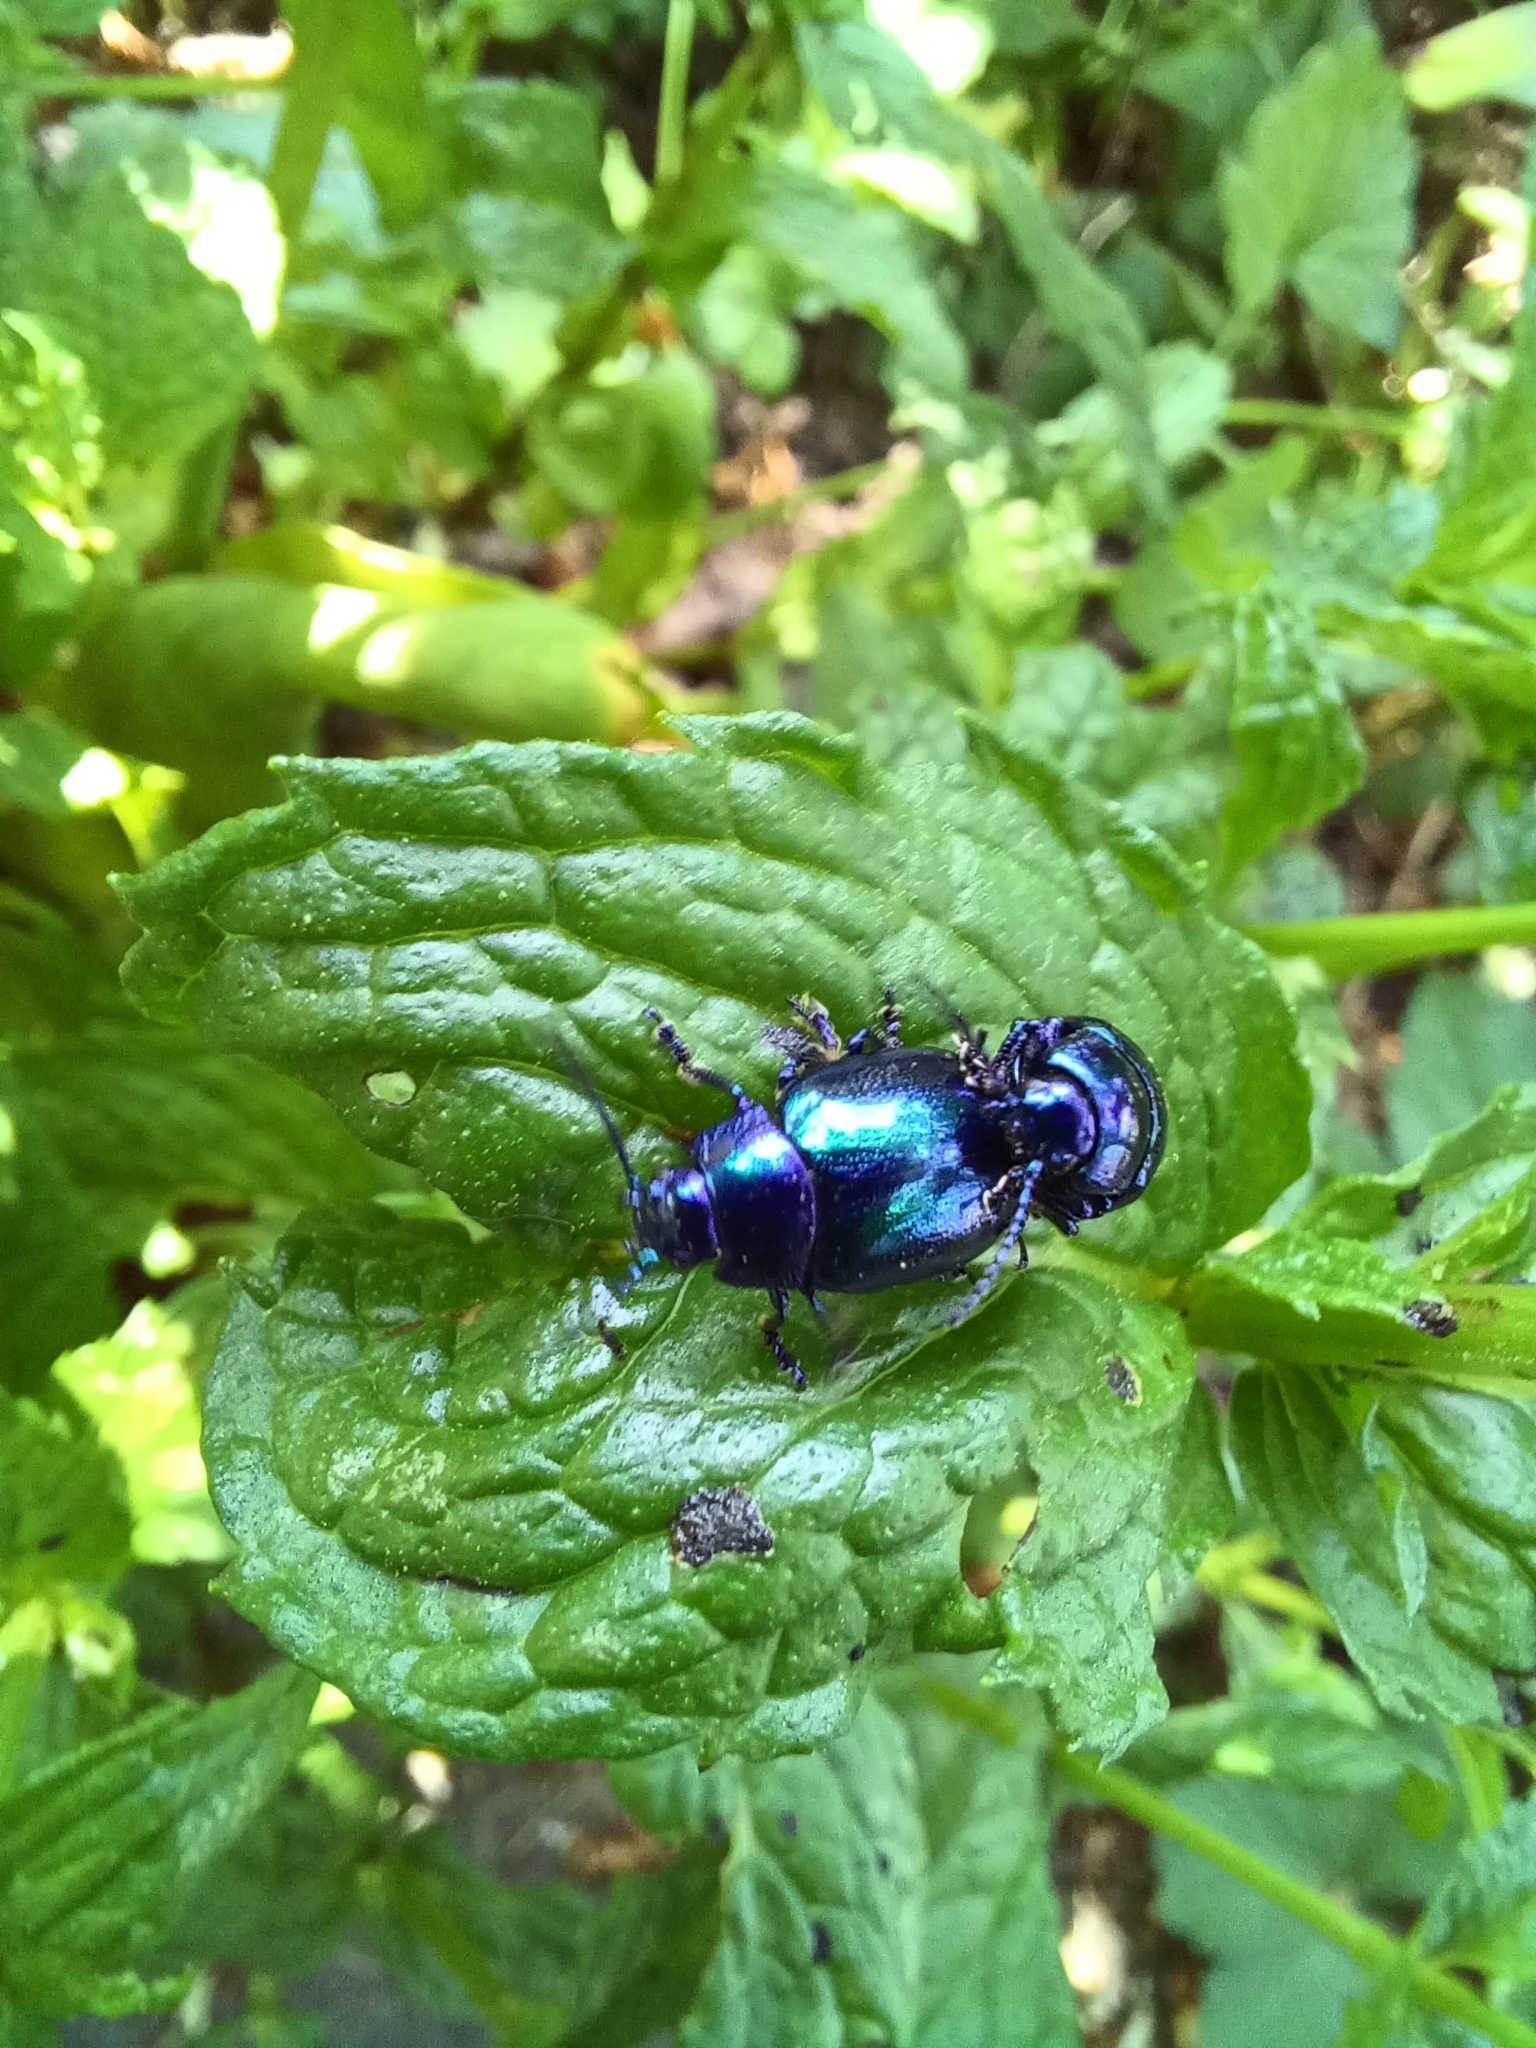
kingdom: Animalia
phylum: Arthropoda
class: Insecta
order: Coleoptera
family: Chrysomelidae
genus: Chrysolina
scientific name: Chrysolina coerulans
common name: Blue mint beetle
